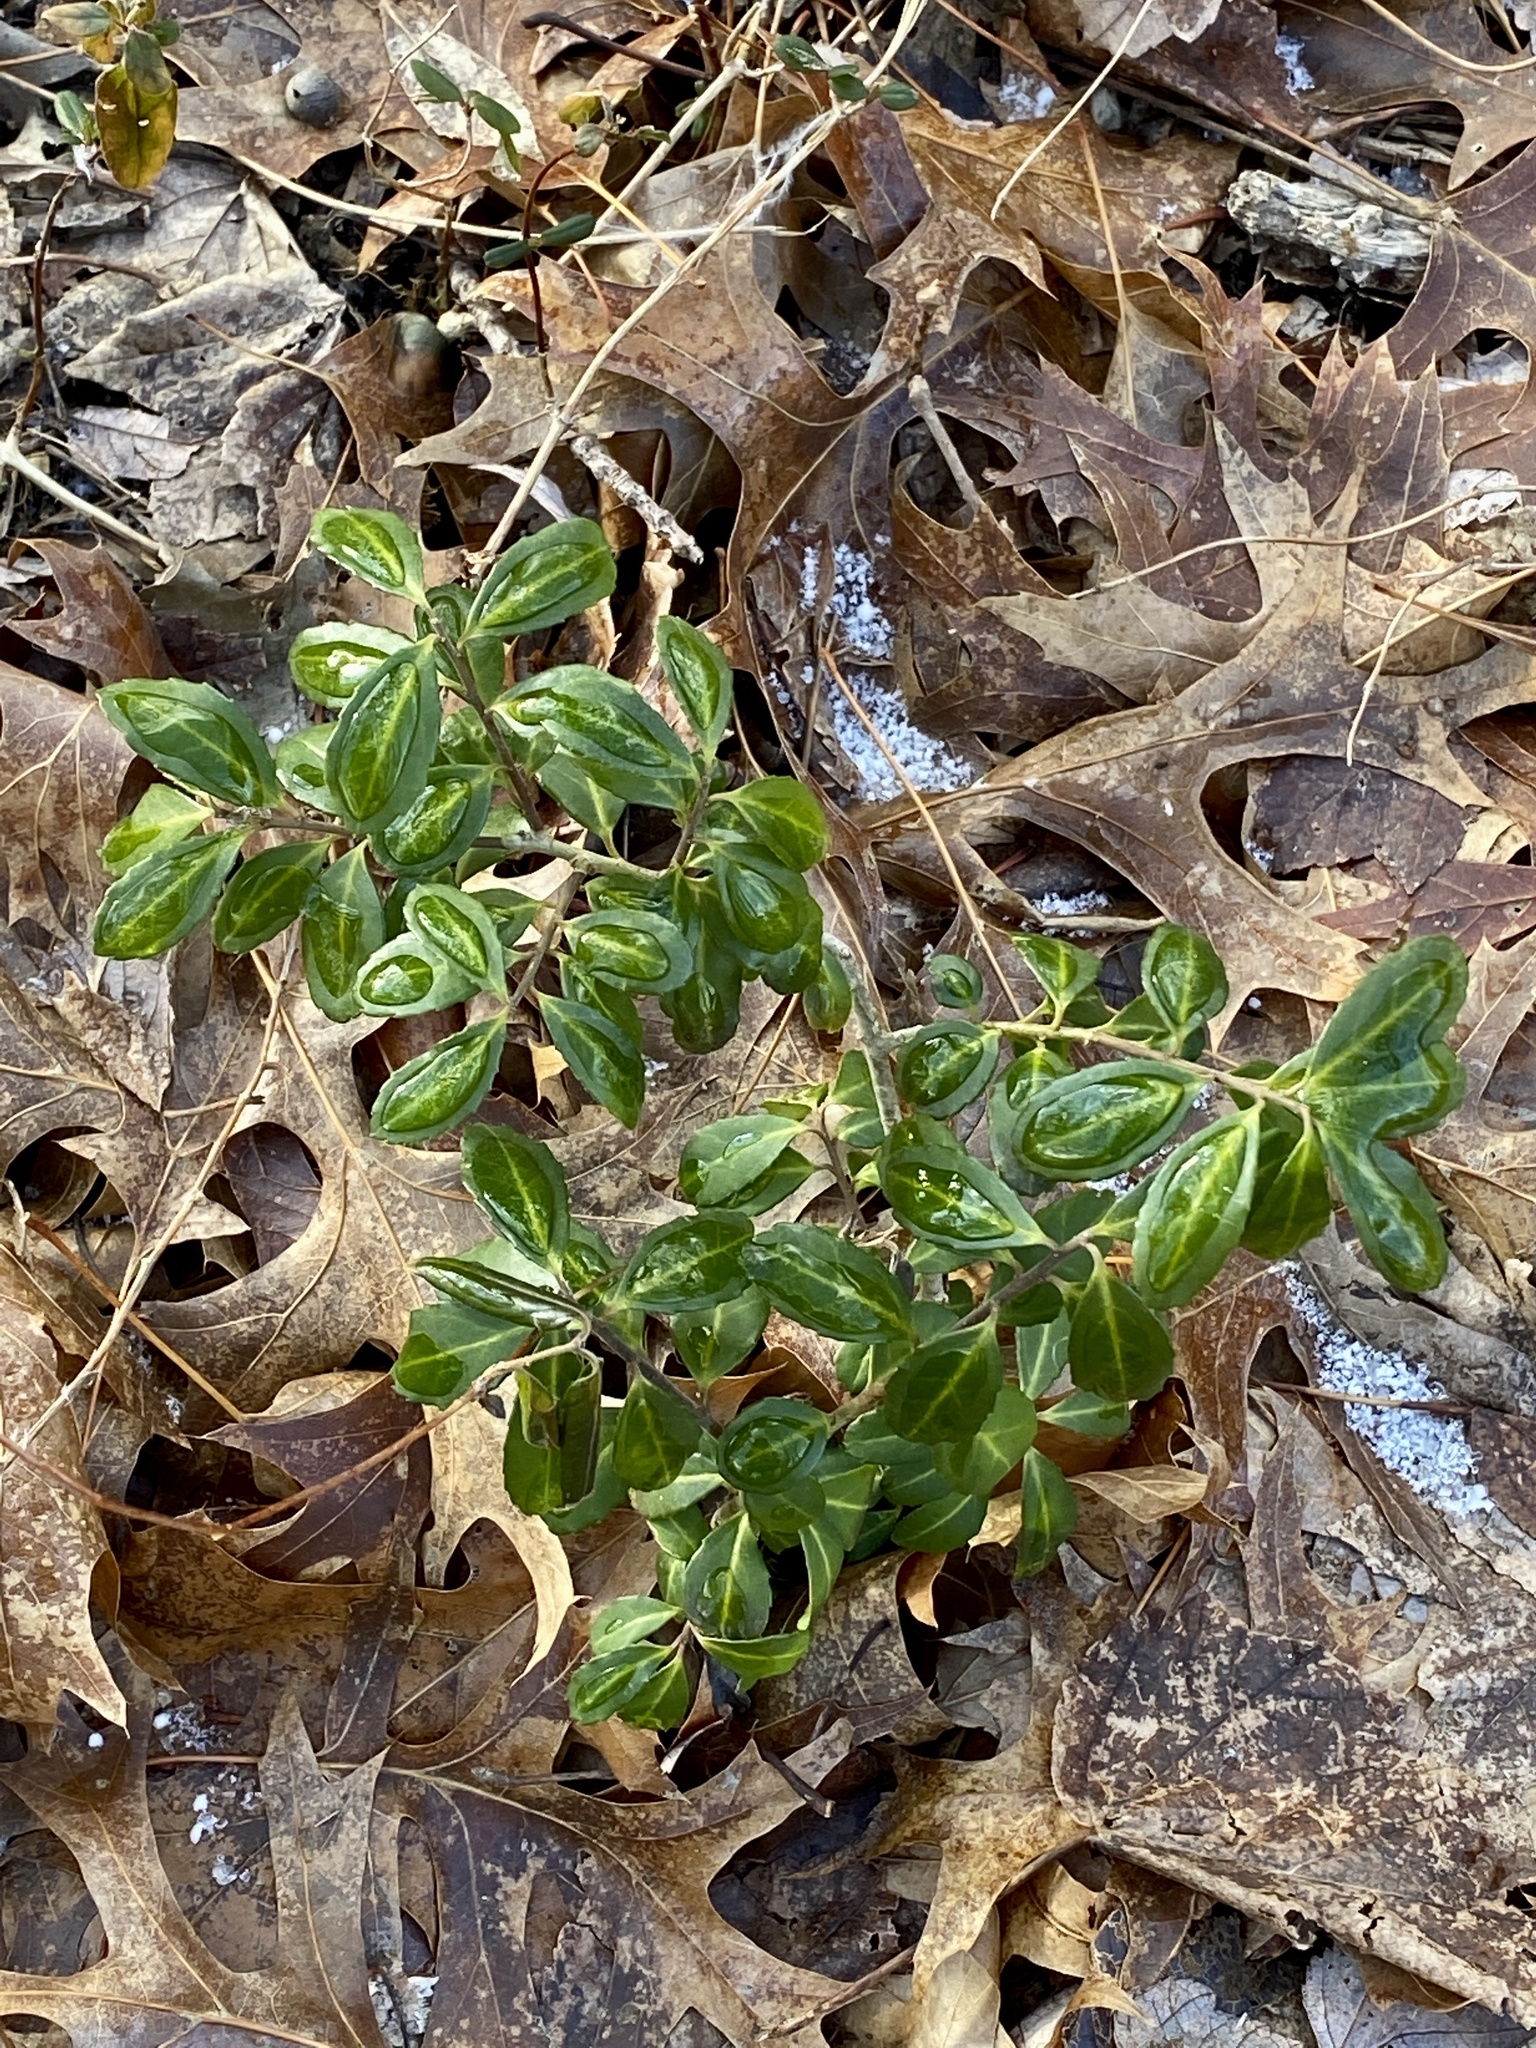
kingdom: Plantae
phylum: Tracheophyta
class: Magnoliopsida
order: Aquifoliales
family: Aquifoliaceae
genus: Ilex
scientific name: Ilex crenata
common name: Japanese holly
